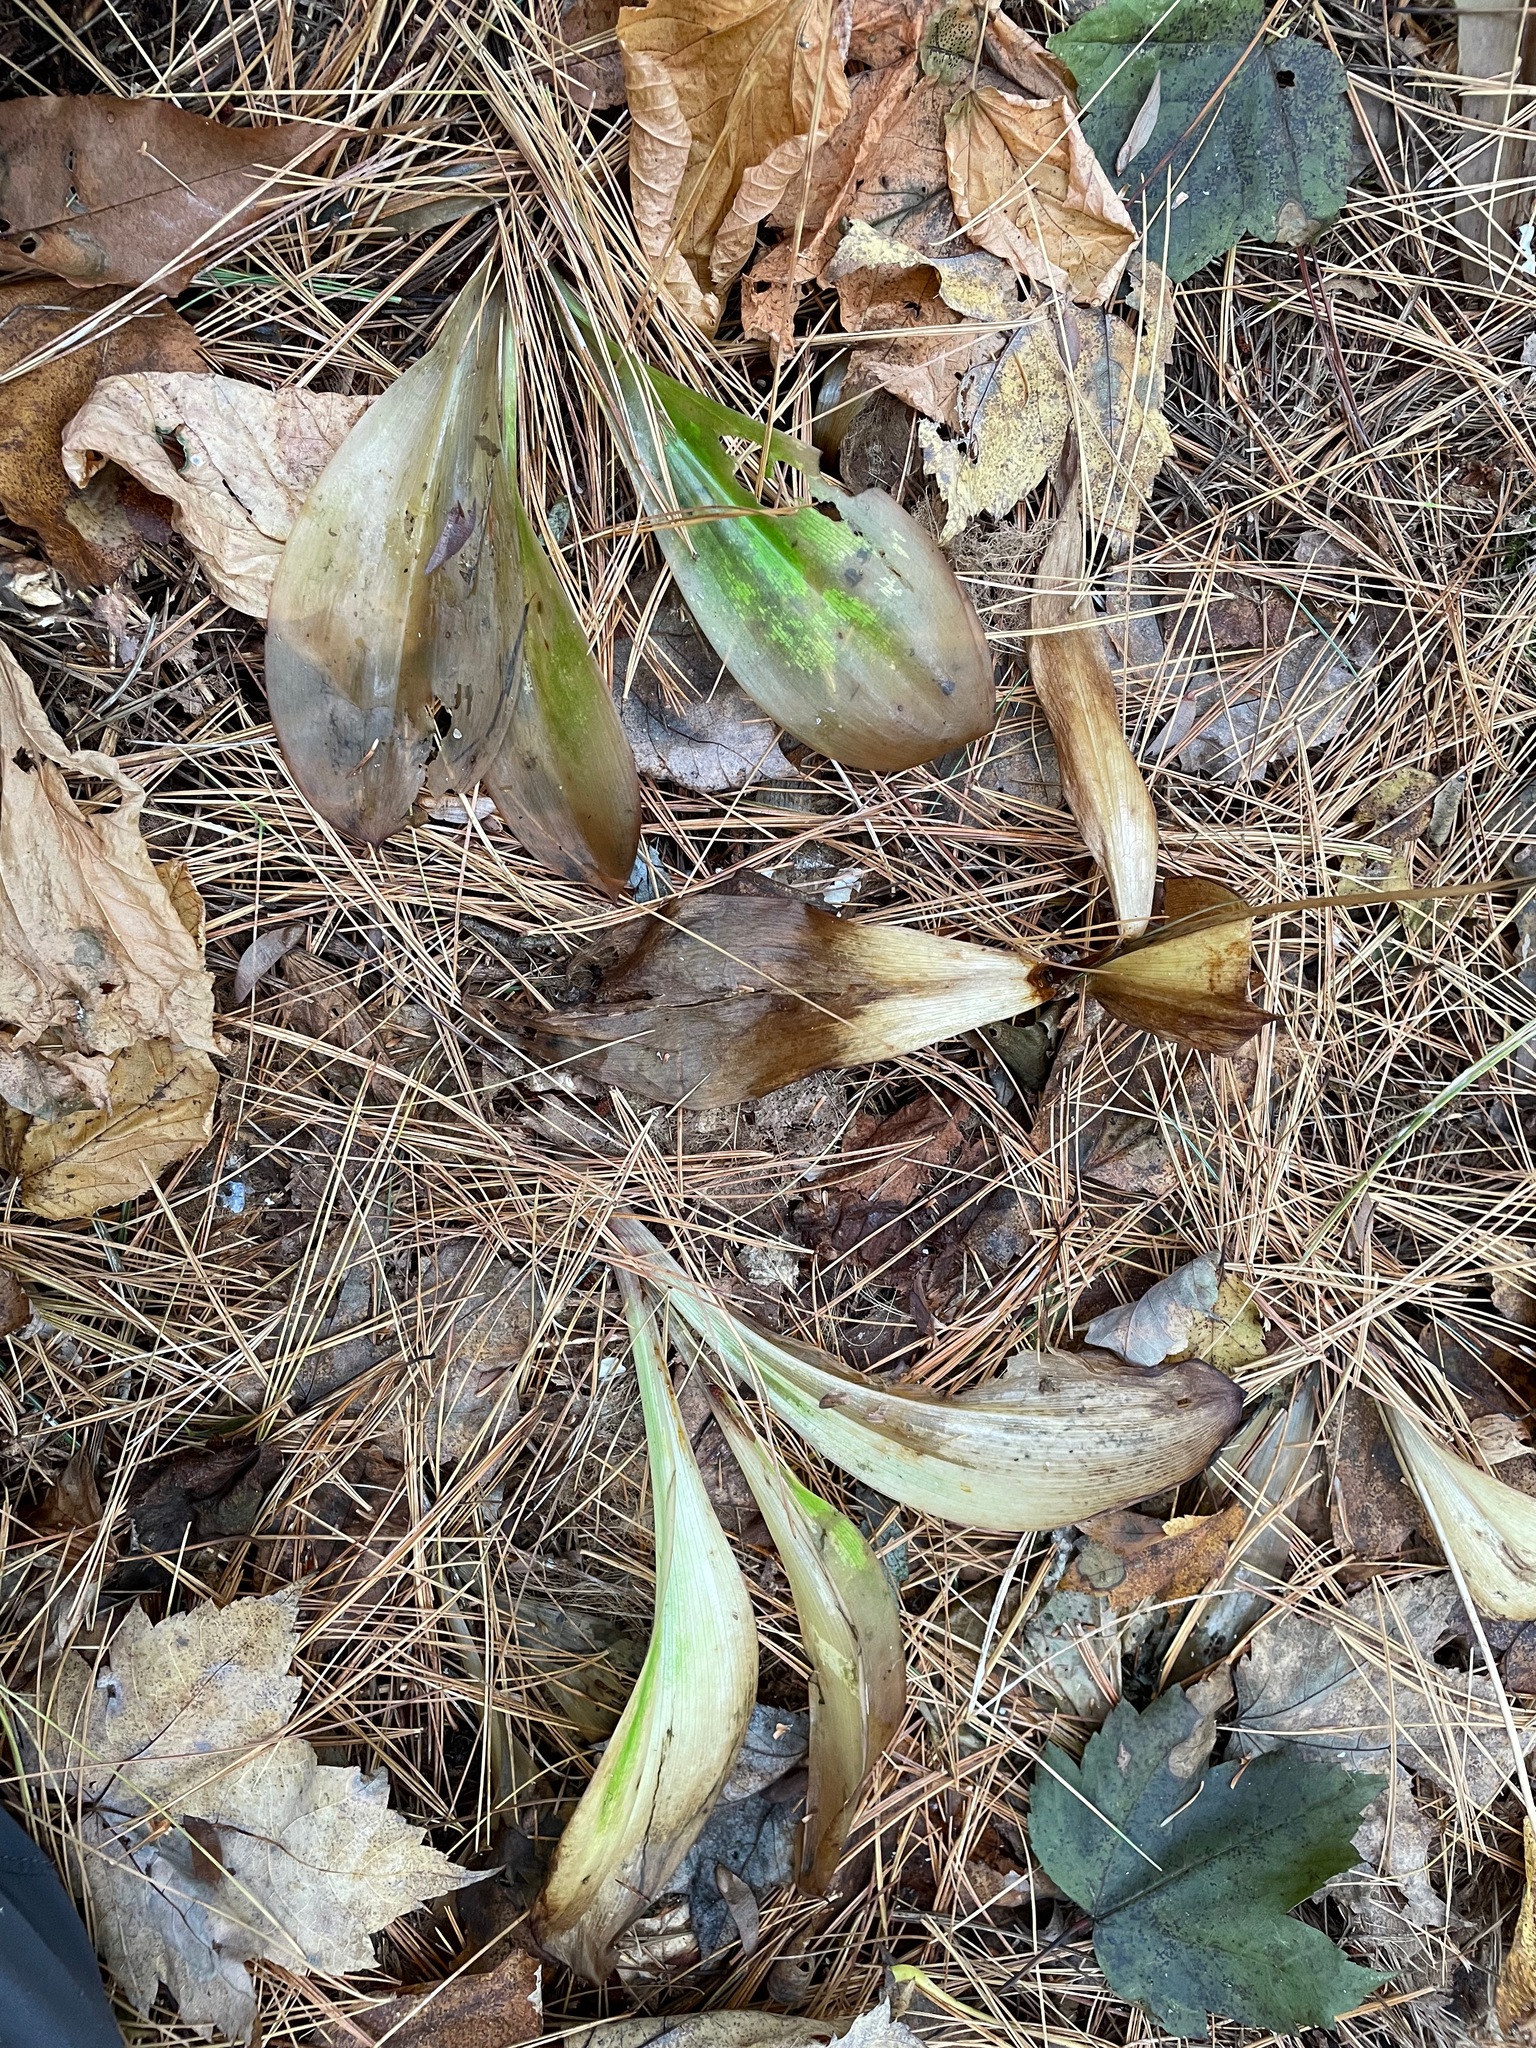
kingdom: Plantae
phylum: Tracheophyta
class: Liliopsida
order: Liliales
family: Liliaceae
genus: Clintonia
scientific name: Clintonia borealis
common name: Yellow clintonia
